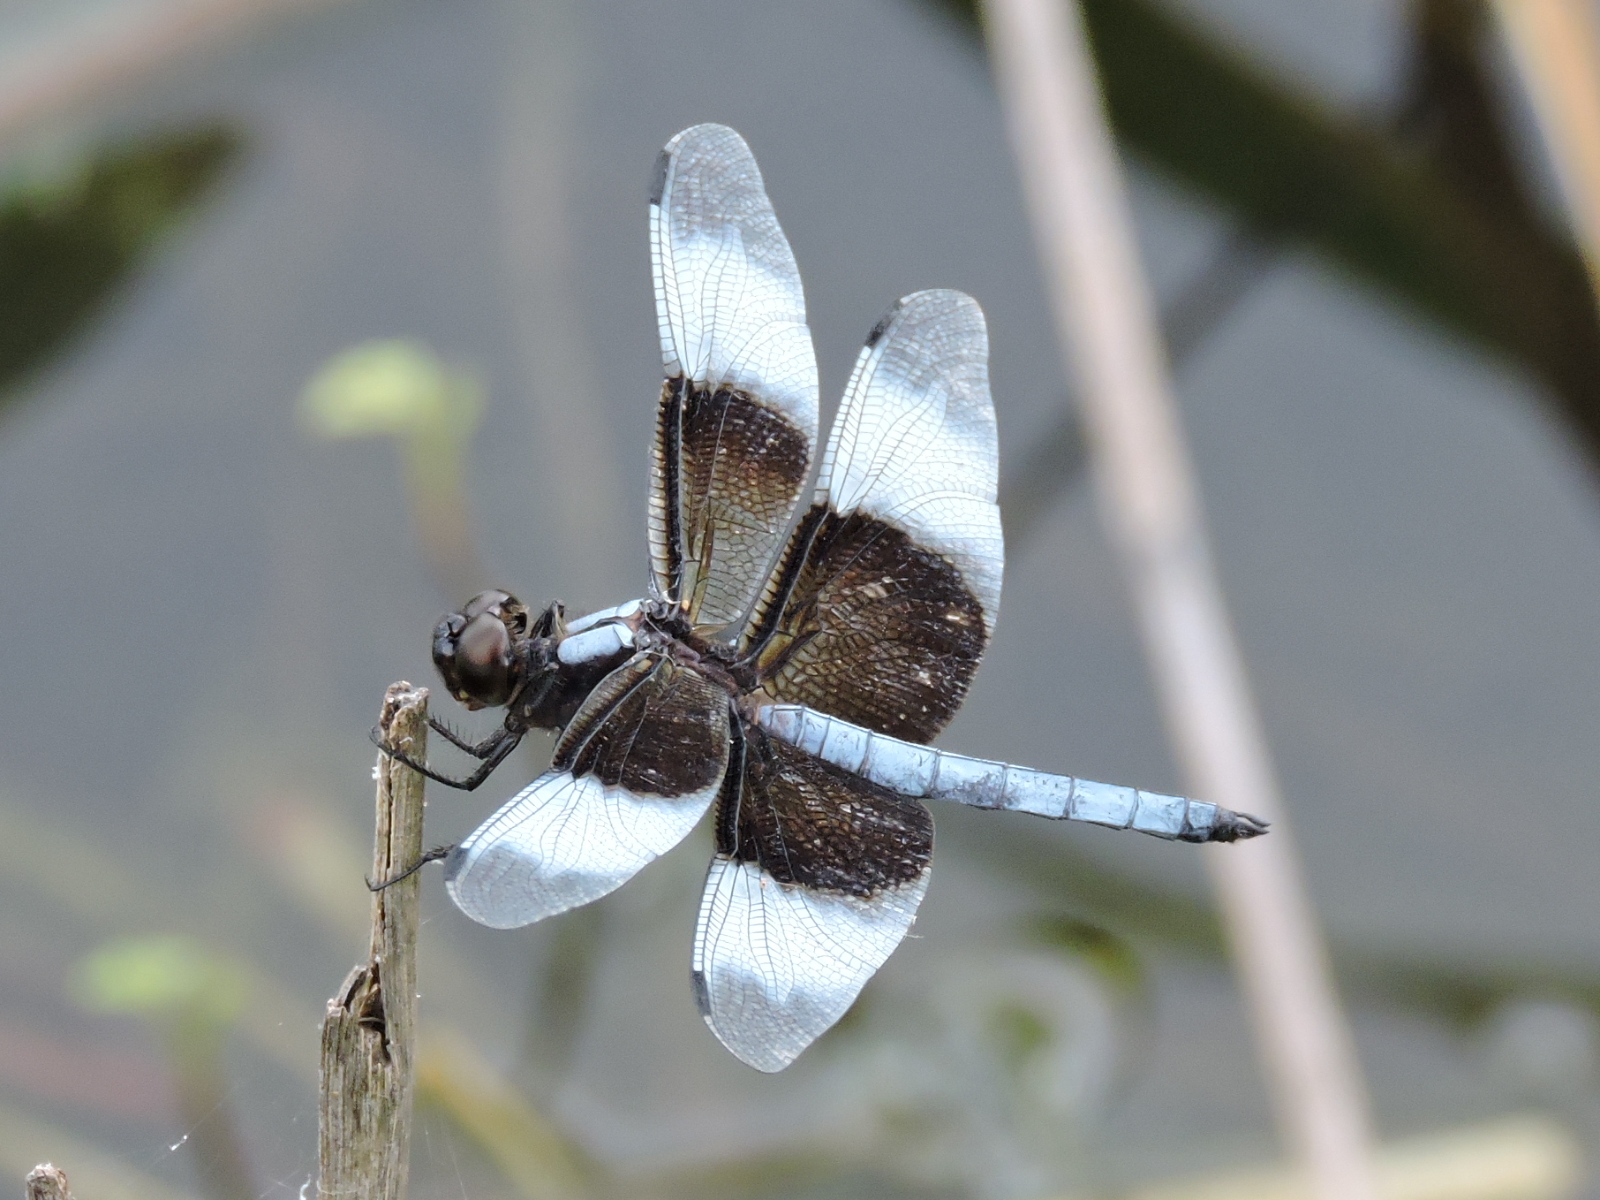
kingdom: Animalia
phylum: Arthropoda
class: Insecta
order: Odonata
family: Libellulidae
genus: Libellula
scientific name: Libellula luctuosa
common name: Widow skimmer
